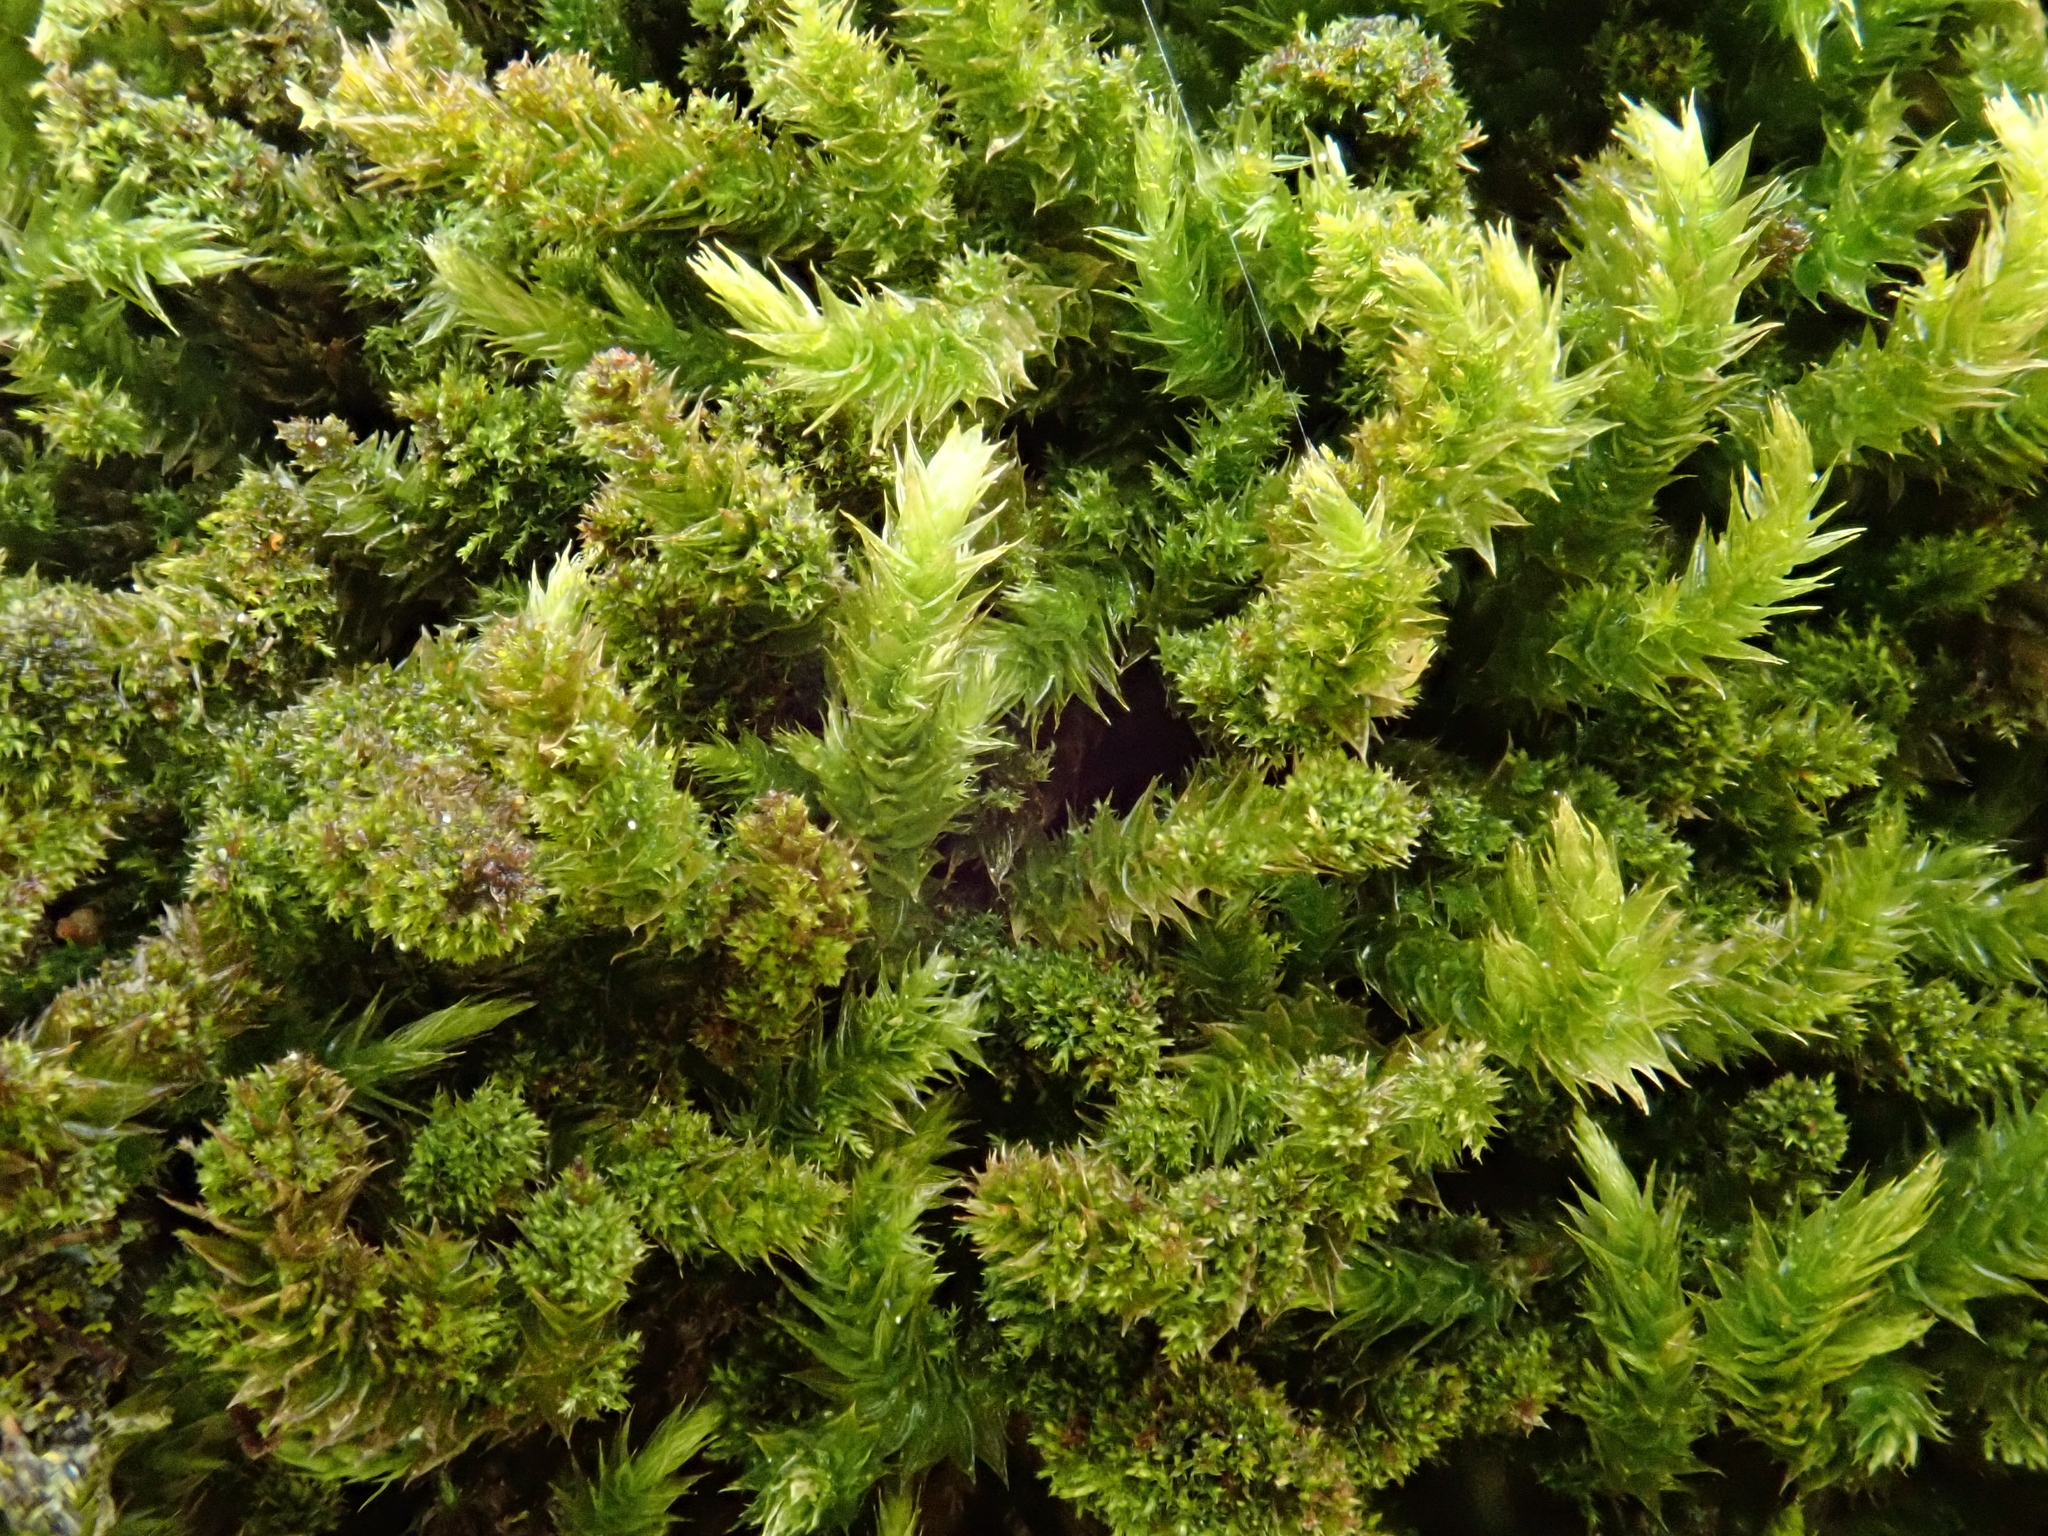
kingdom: Plantae
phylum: Bryophyta
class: Bryopsida
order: Hypnales
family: Leucodontaceae
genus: Leucodon
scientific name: Leucodon sciuroides
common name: Squirrel-tail moss
